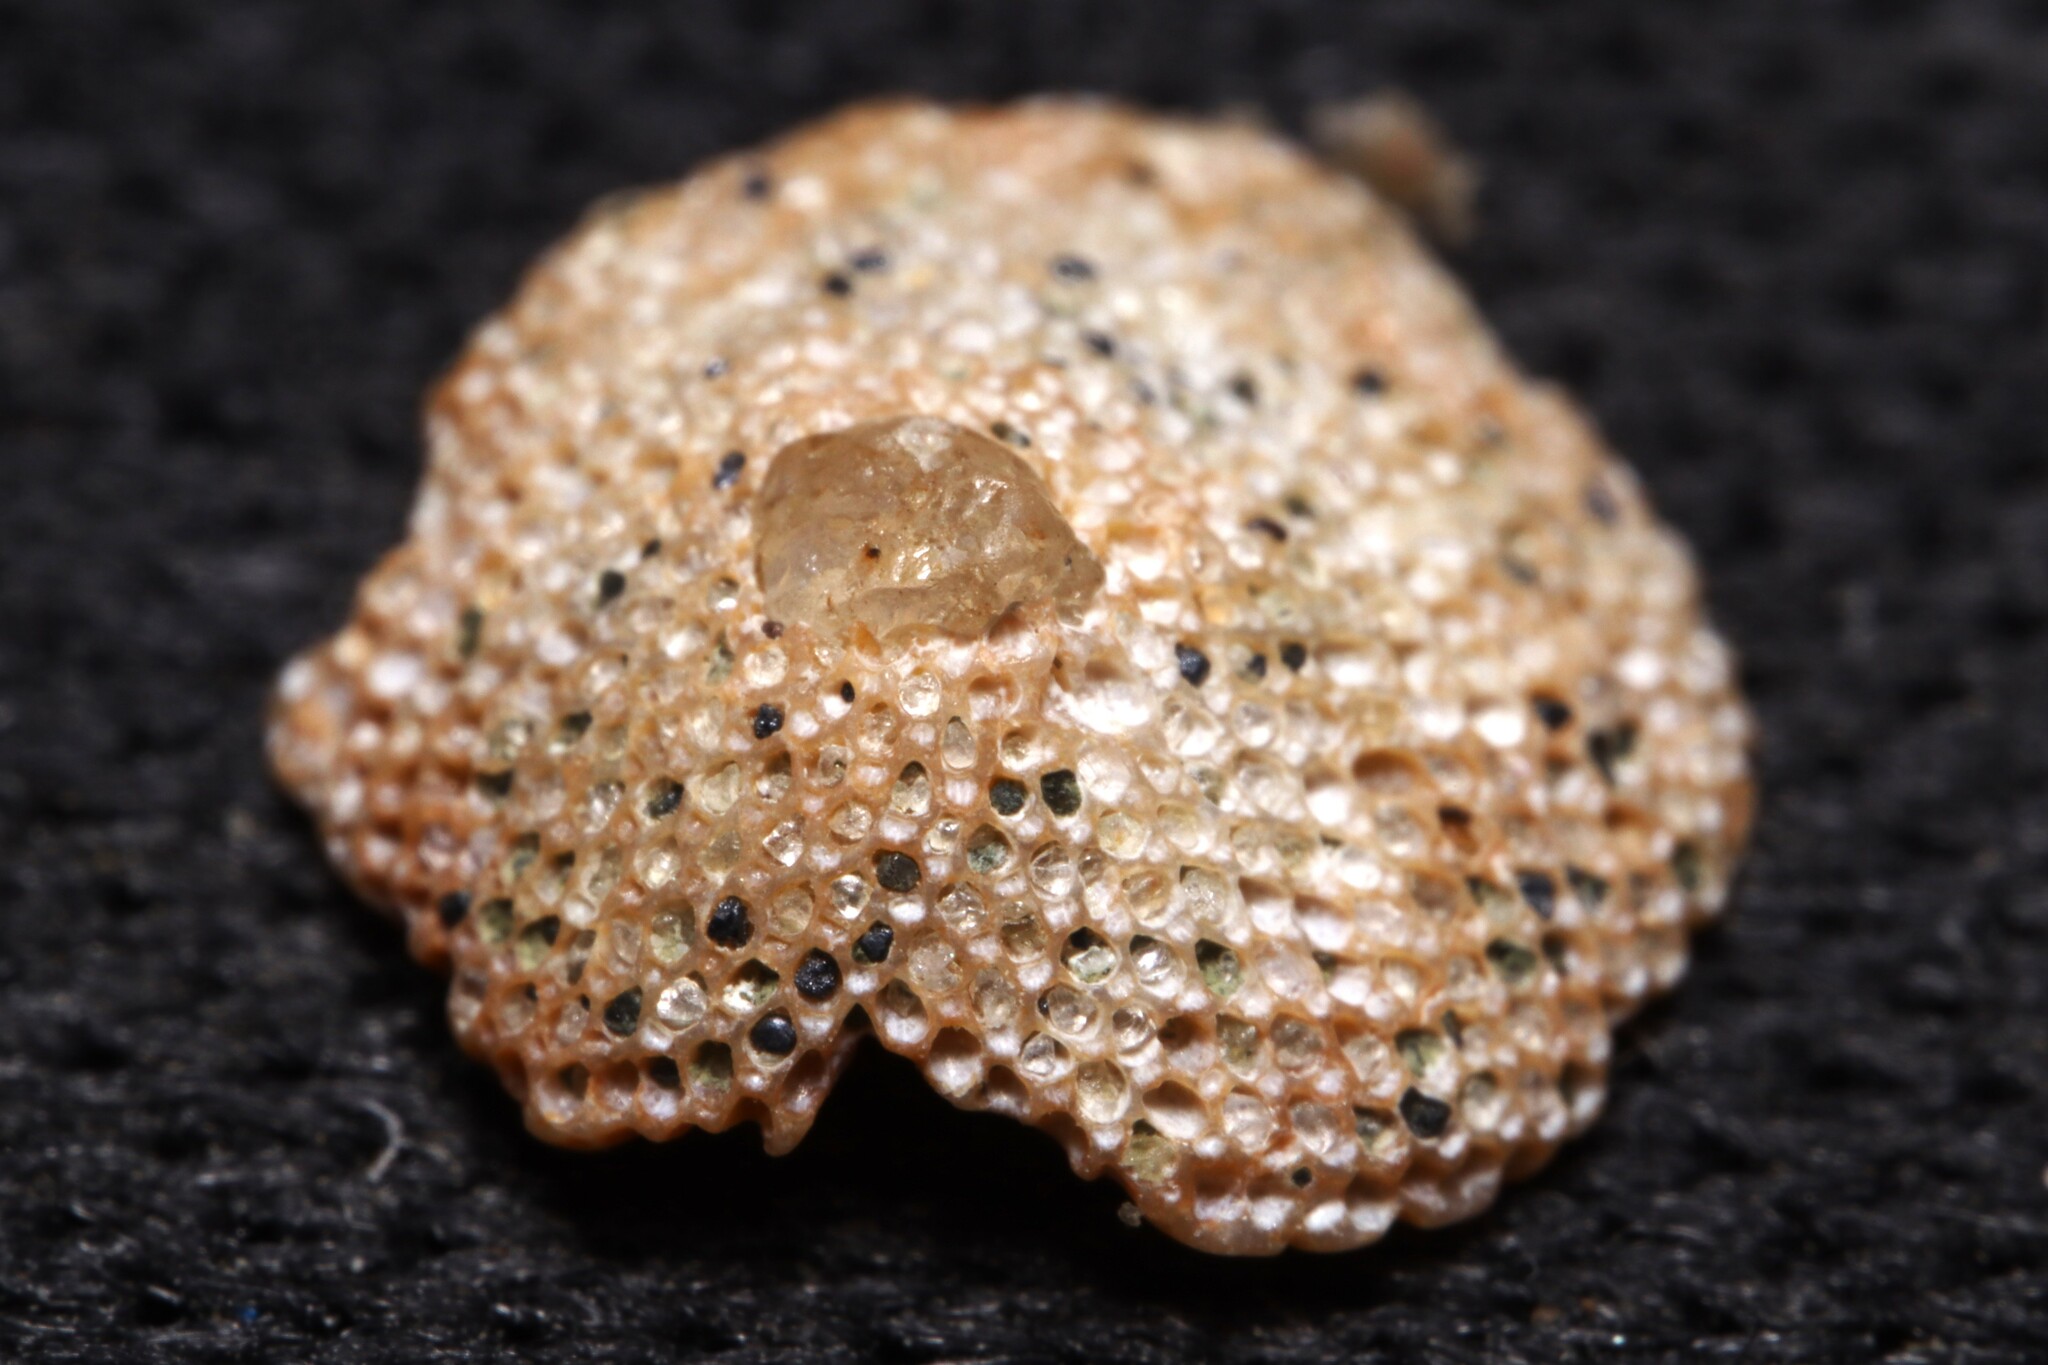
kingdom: Animalia
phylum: Bryozoa
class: Gymnolaemata
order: Cheilostomatida
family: Cupuladriidae
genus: Discoporella
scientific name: Discoporella umbellata
